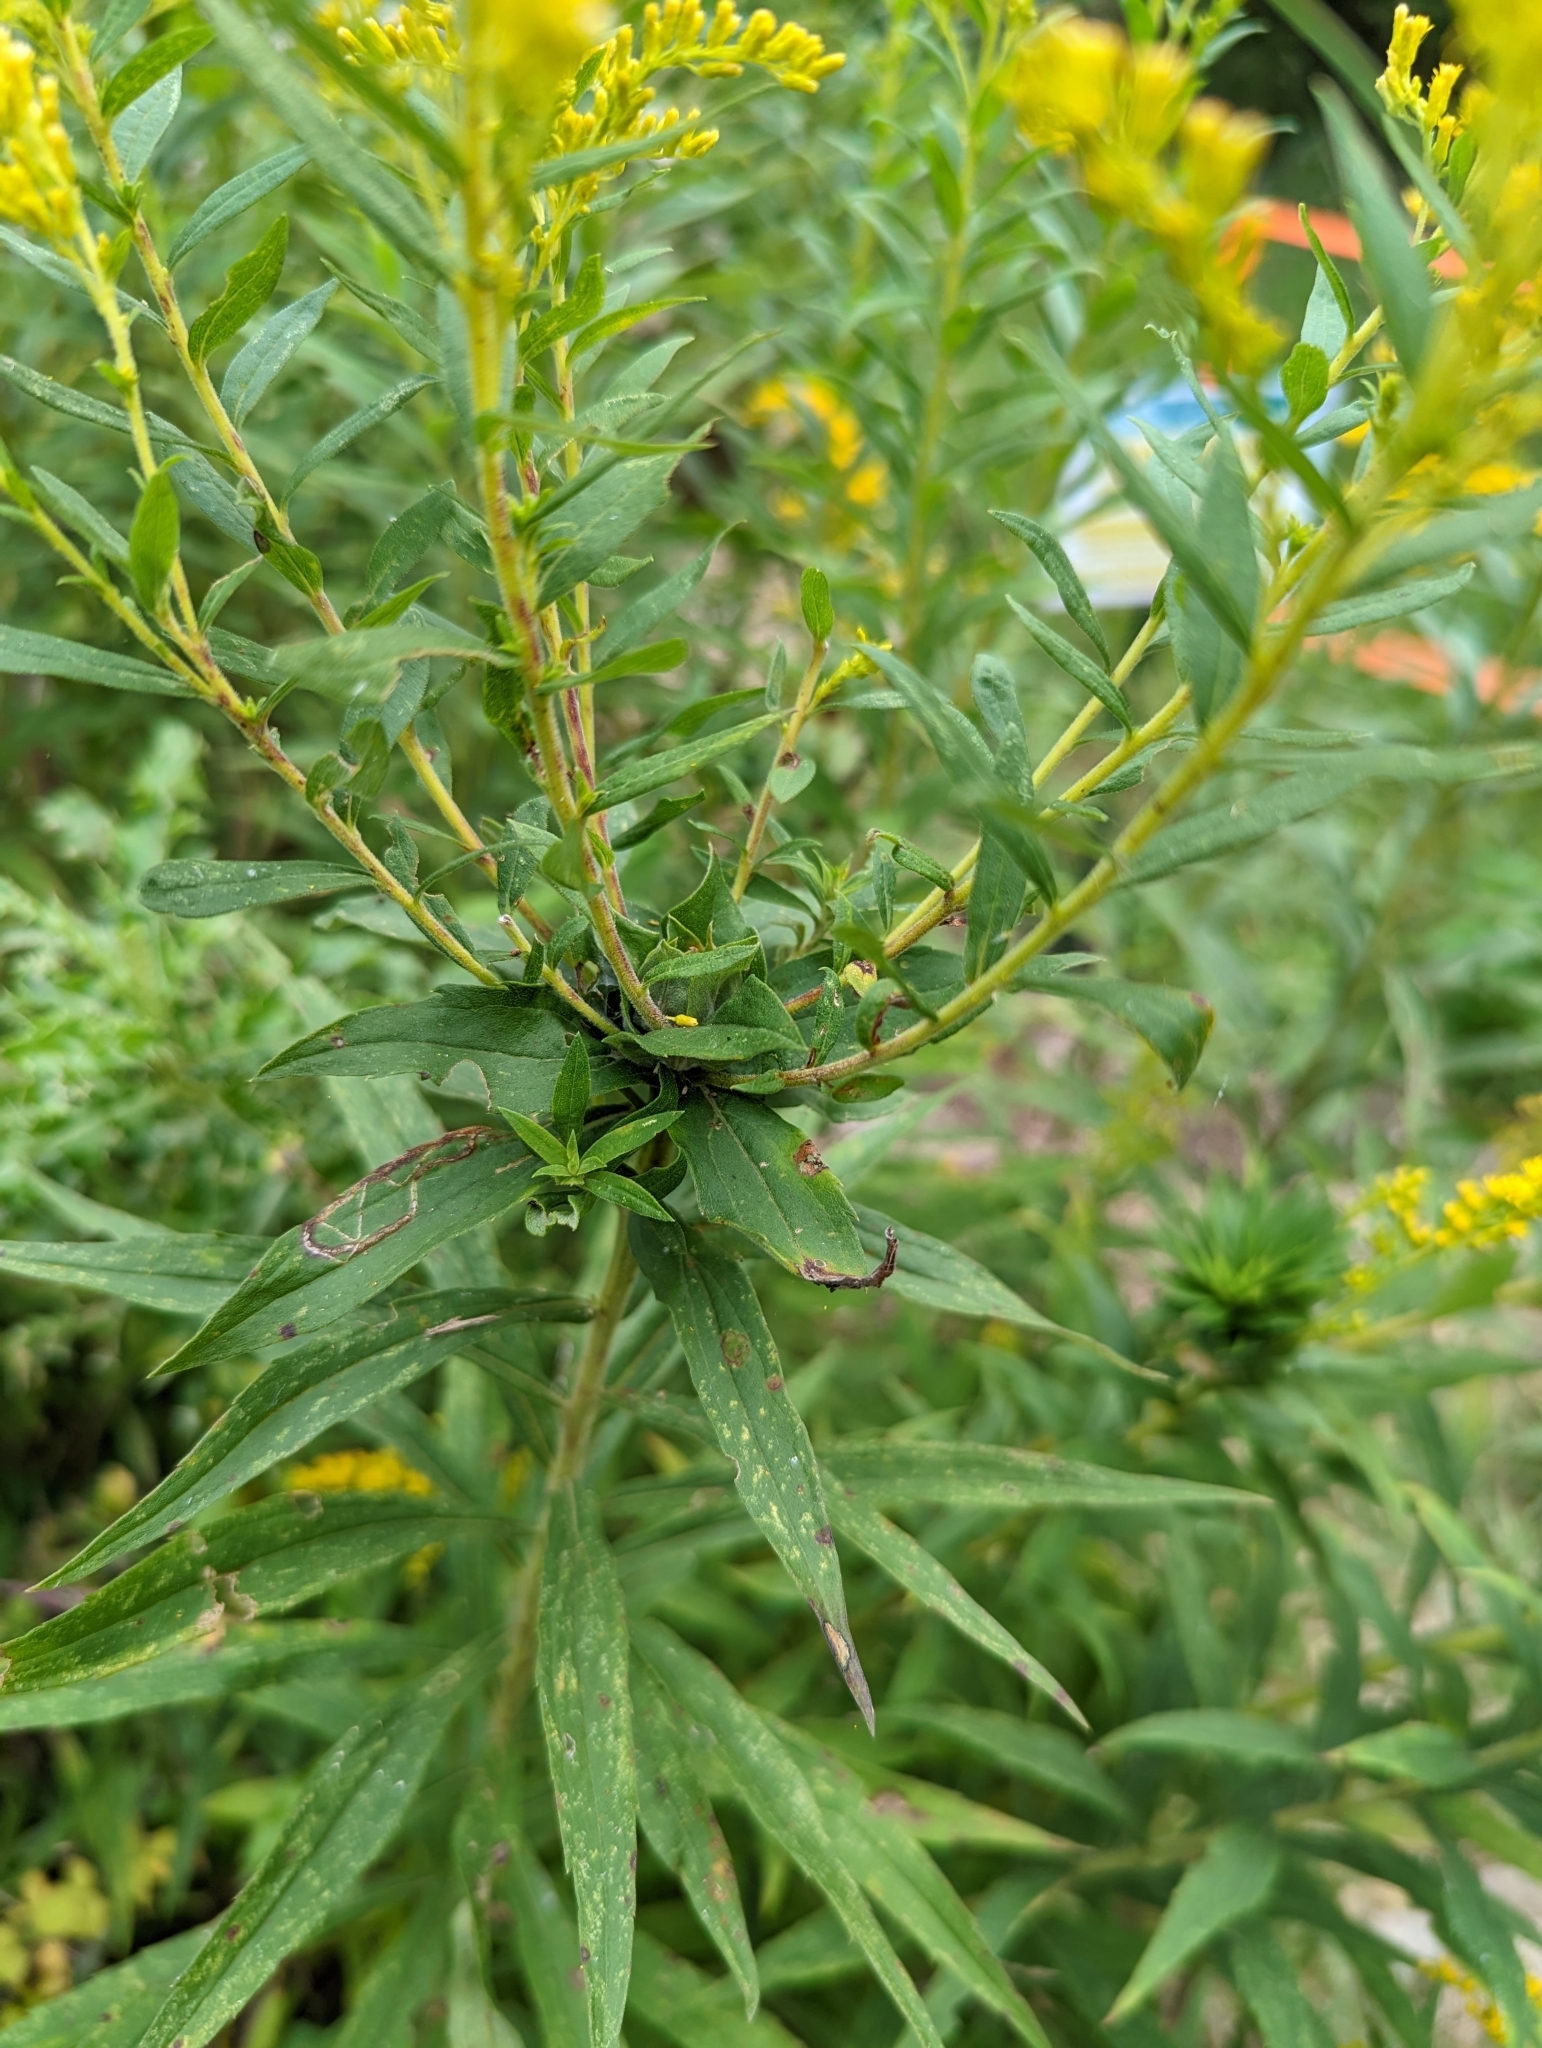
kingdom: Animalia
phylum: Arthropoda
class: Insecta
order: Diptera
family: Cecidomyiidae
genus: Rhopalomyia
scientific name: Rhopalomyia solidaginis
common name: Goldenrod bunch gall midge
